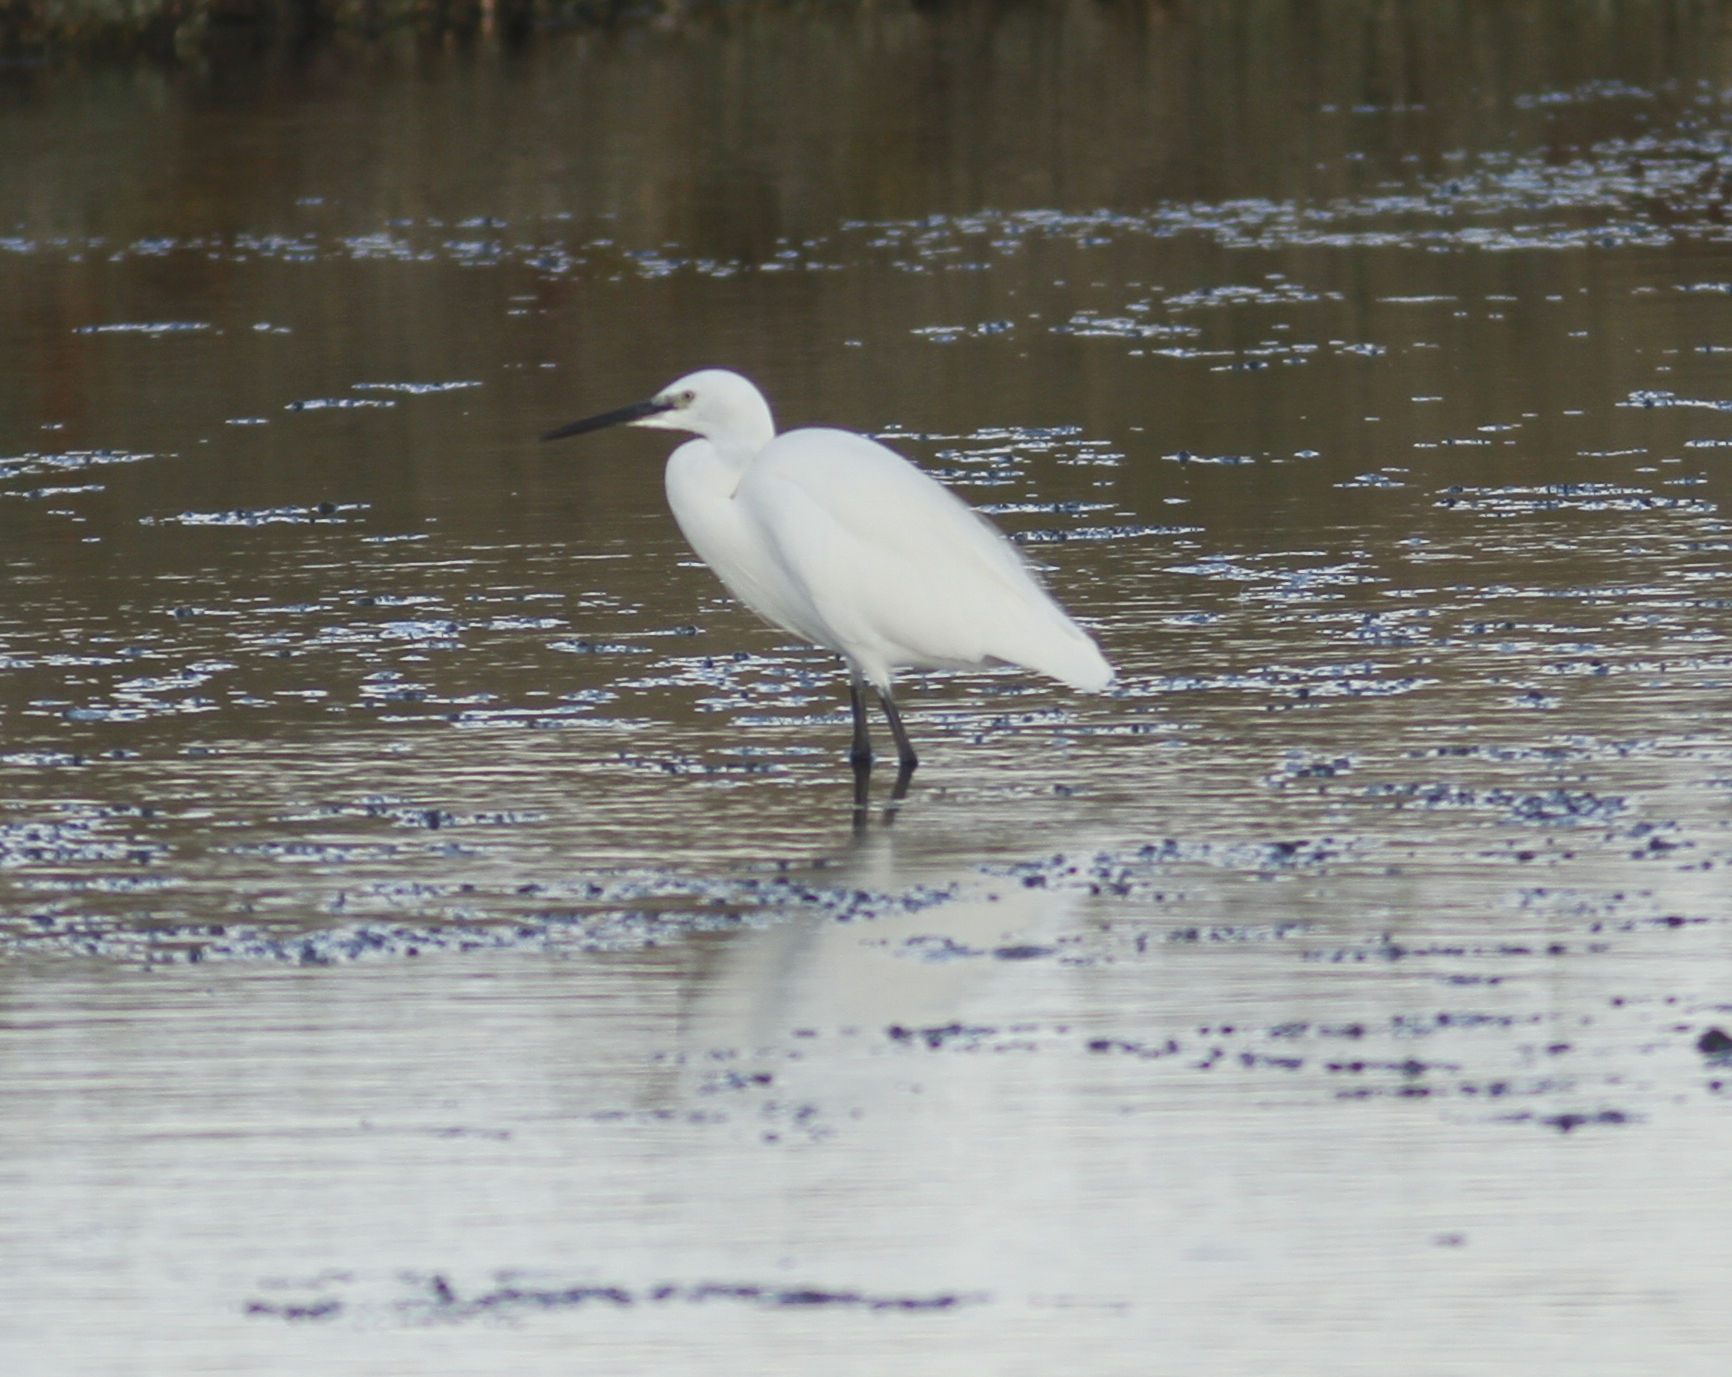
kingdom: Animalia
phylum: Chordata
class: Aves
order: Pelecaniformes
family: Ardeidae
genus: Egretta
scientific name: Egretta garzetta
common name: Little egret
